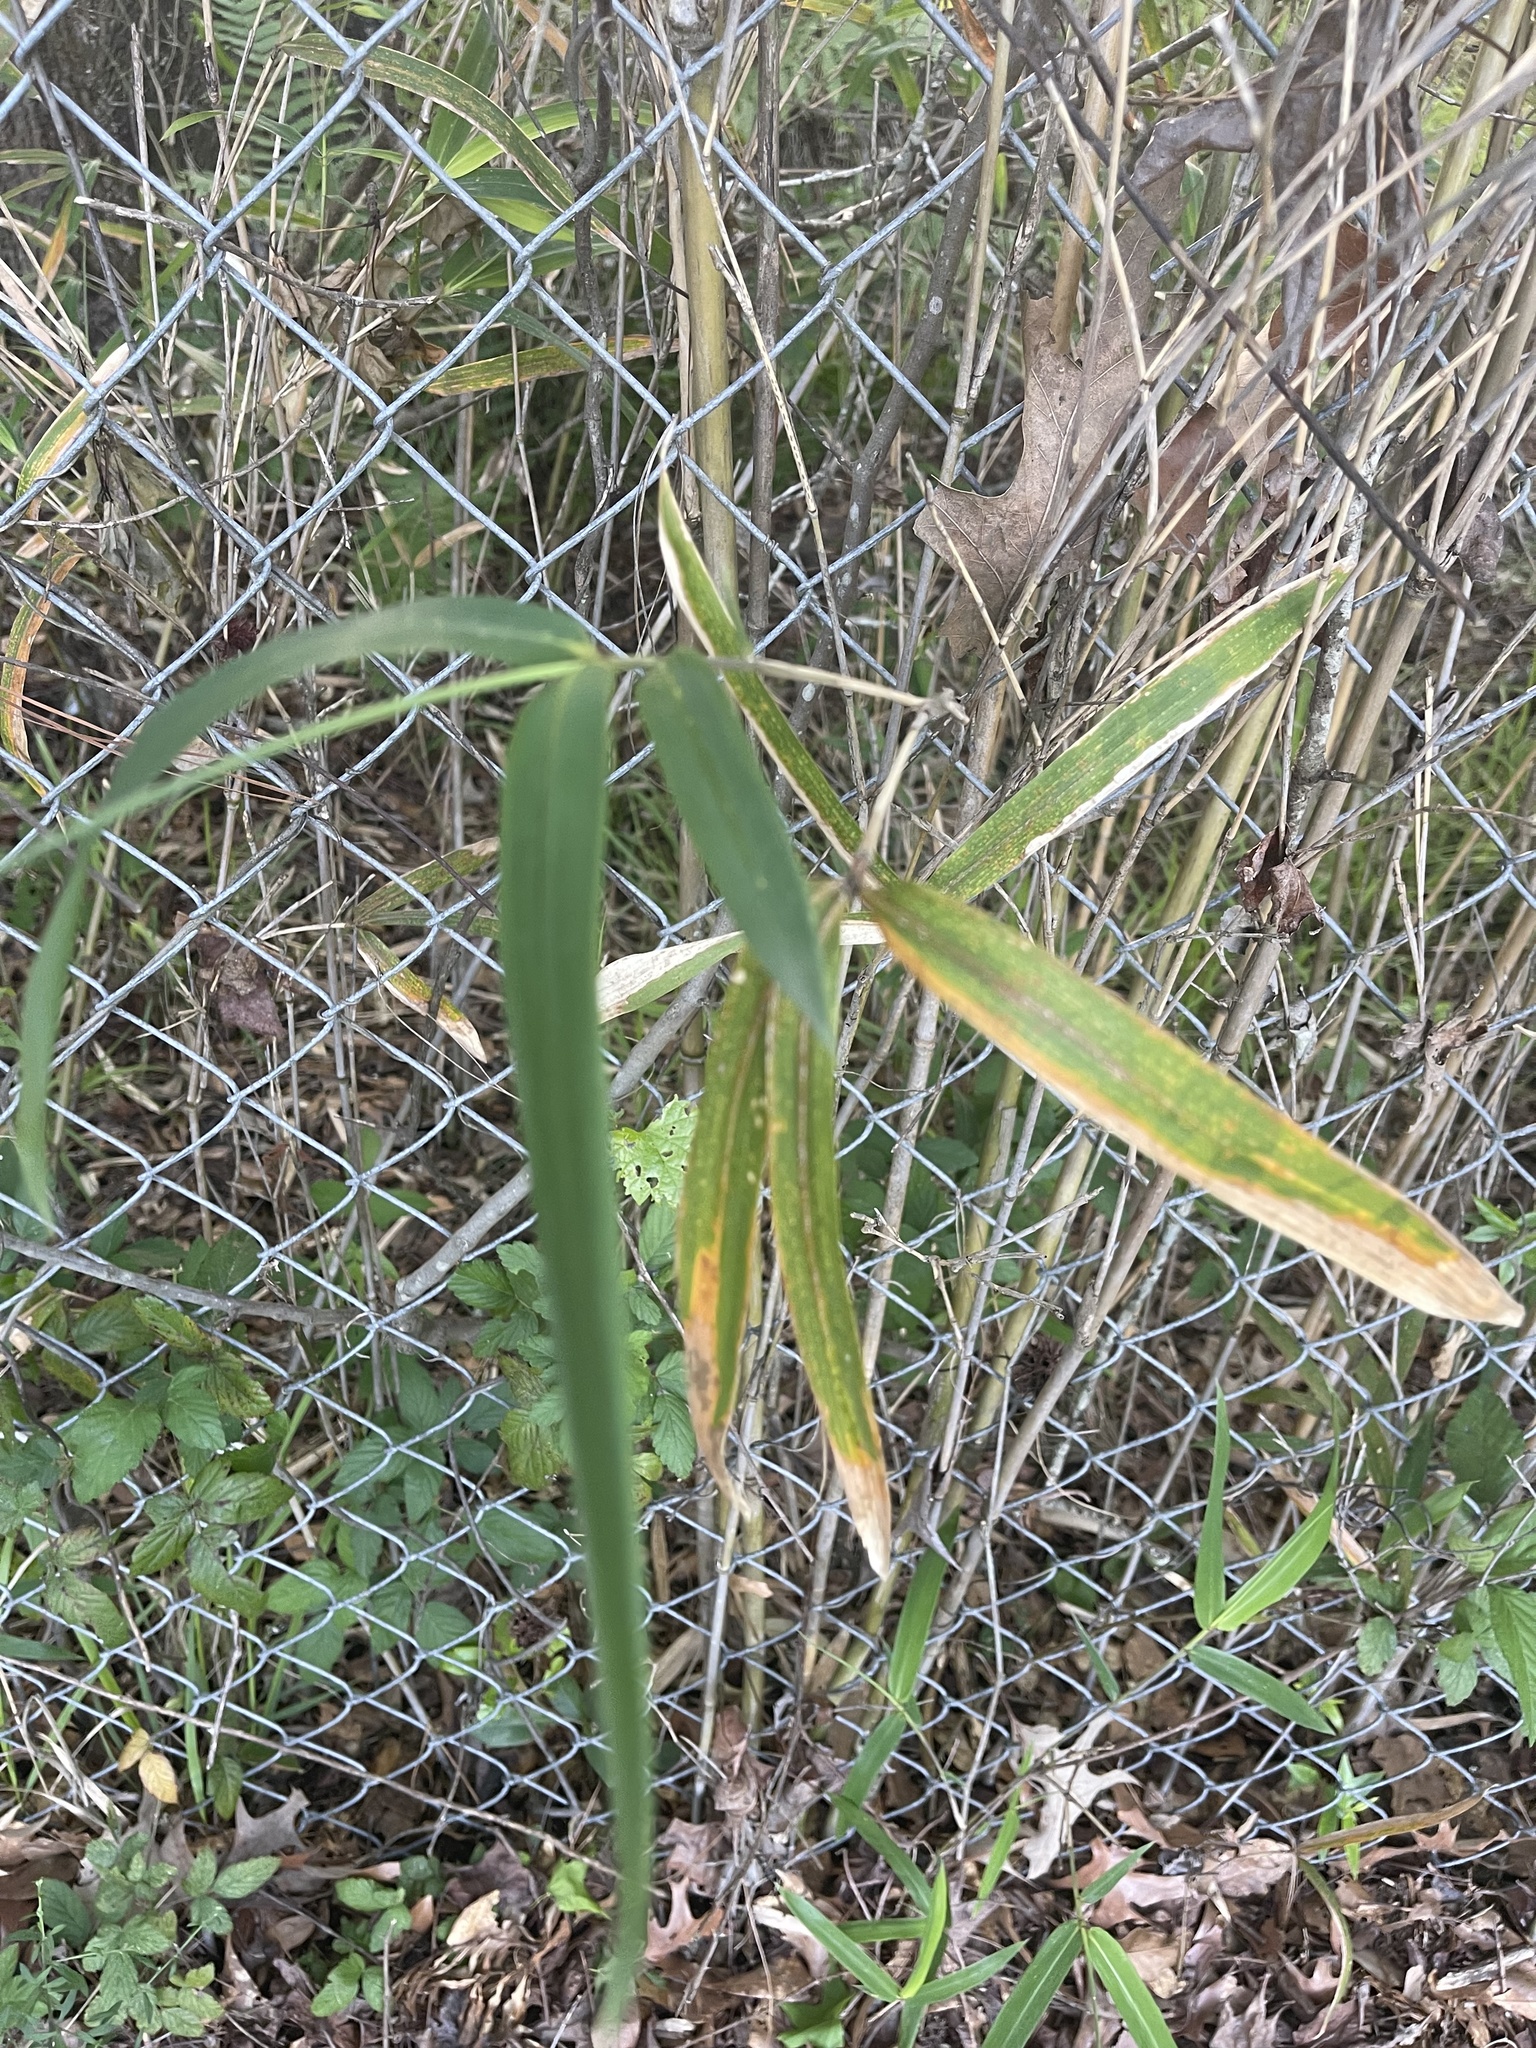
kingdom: Plantae
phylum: Tracheophyta
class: Liliopsida
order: Poales
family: Poaceae
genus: Arundinaria
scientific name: Arundinaria tecta
